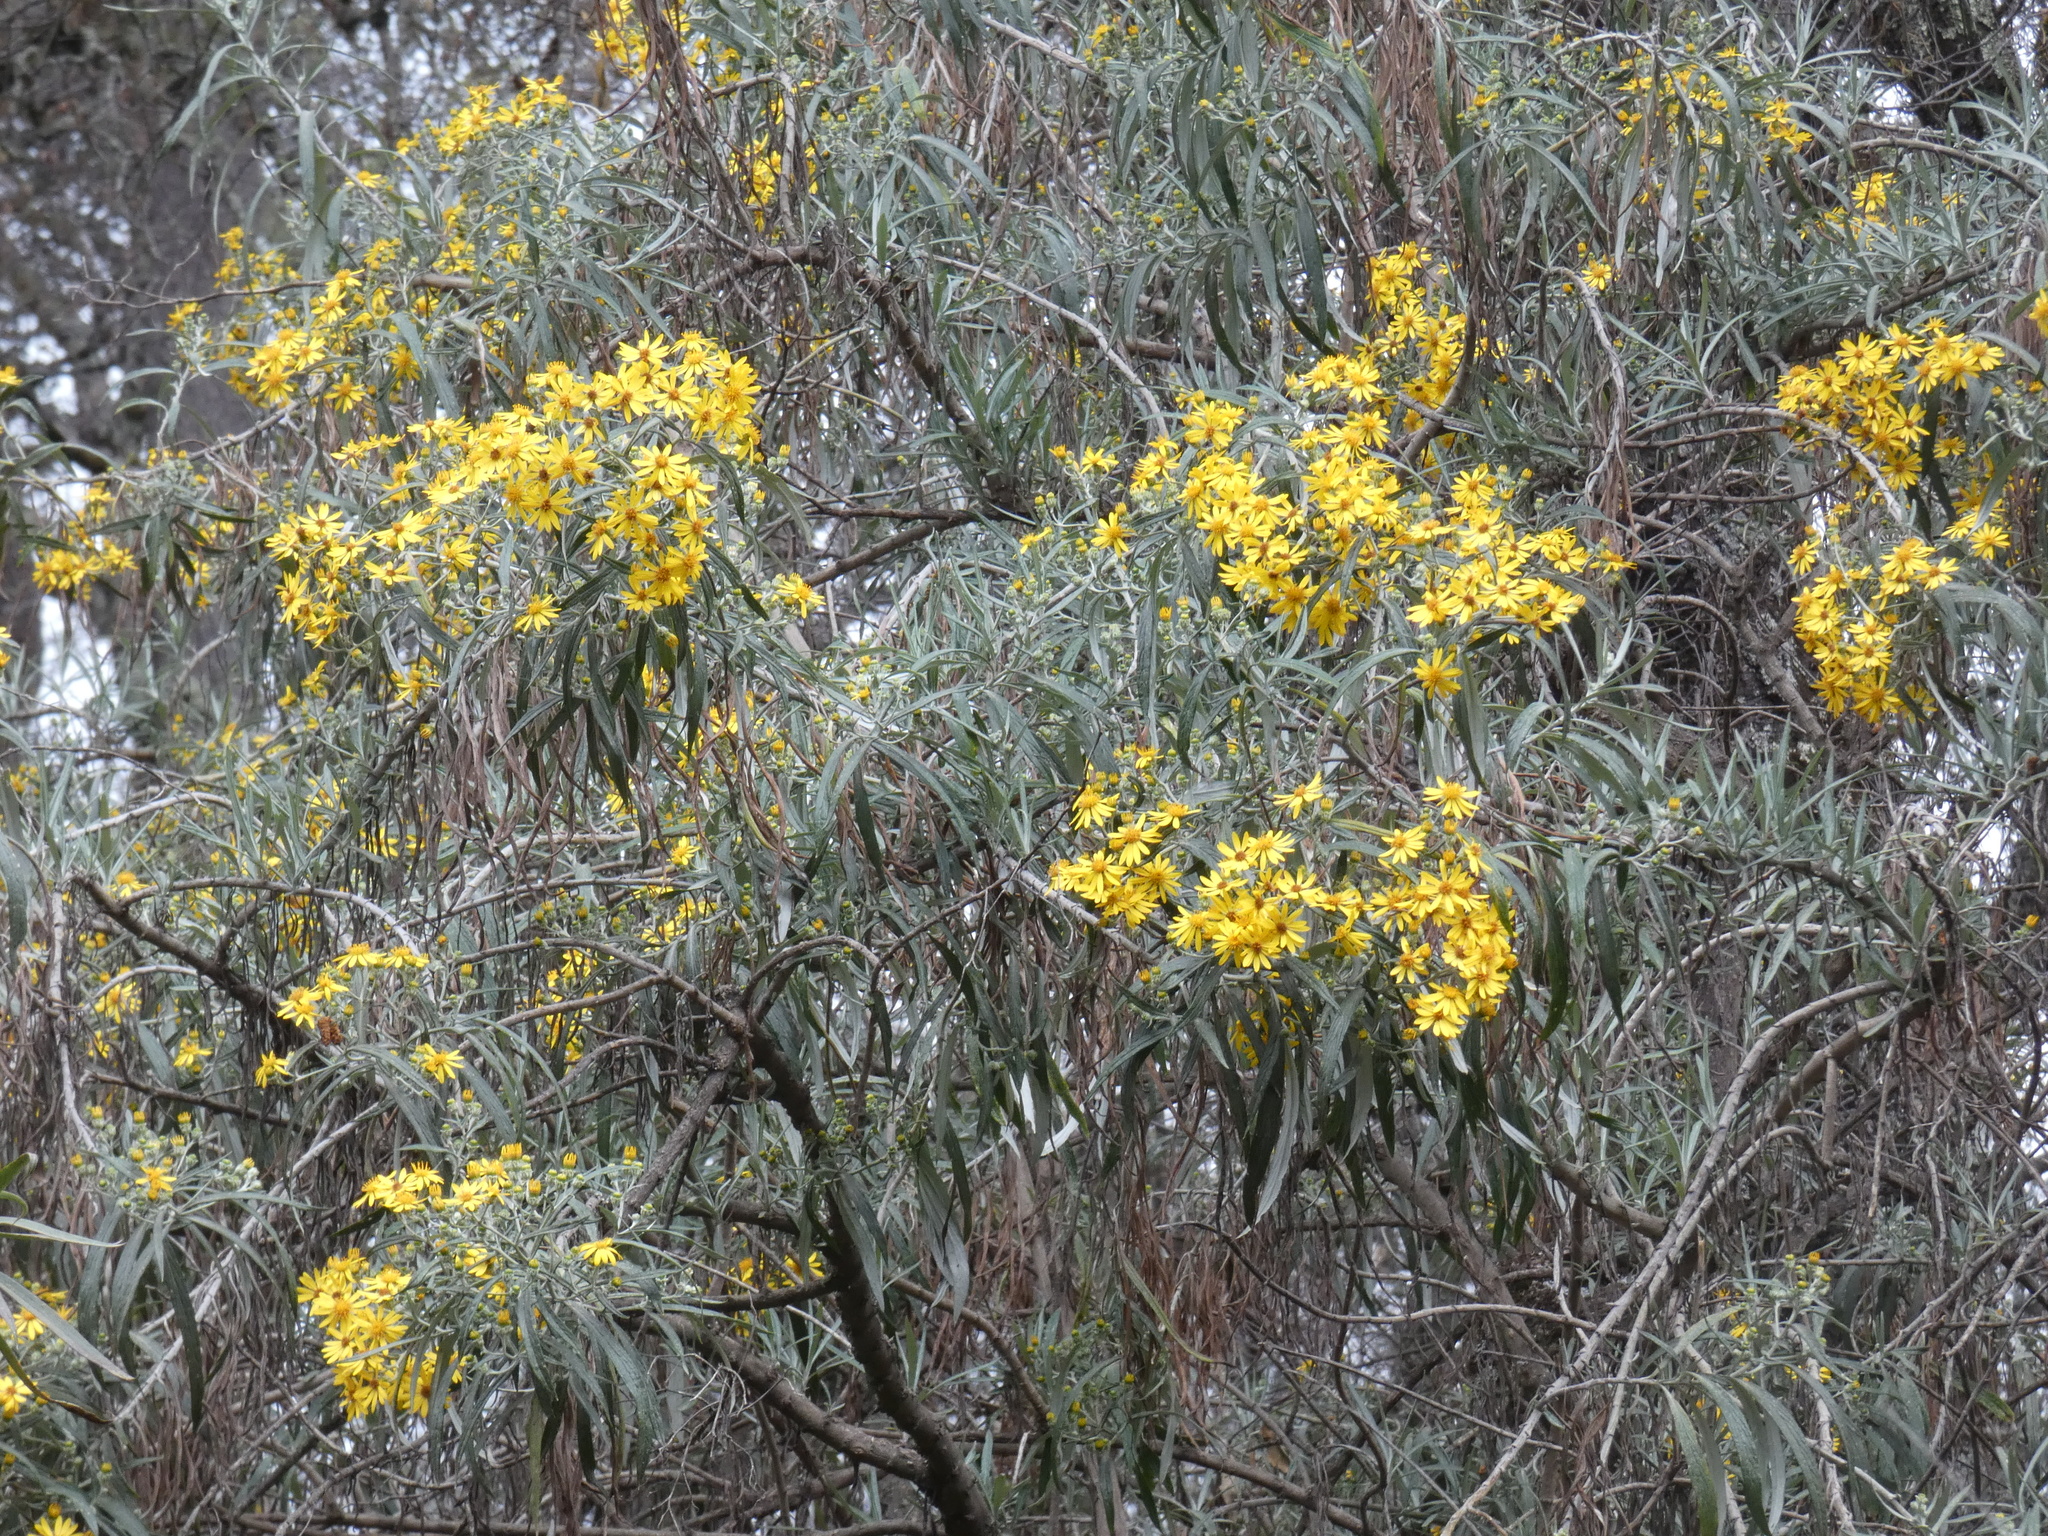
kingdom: Plantae
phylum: Tracheophyta
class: Magnoliopsida
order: Asterales
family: Asteraceae
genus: Senecio
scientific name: Senecio cinerarioides
